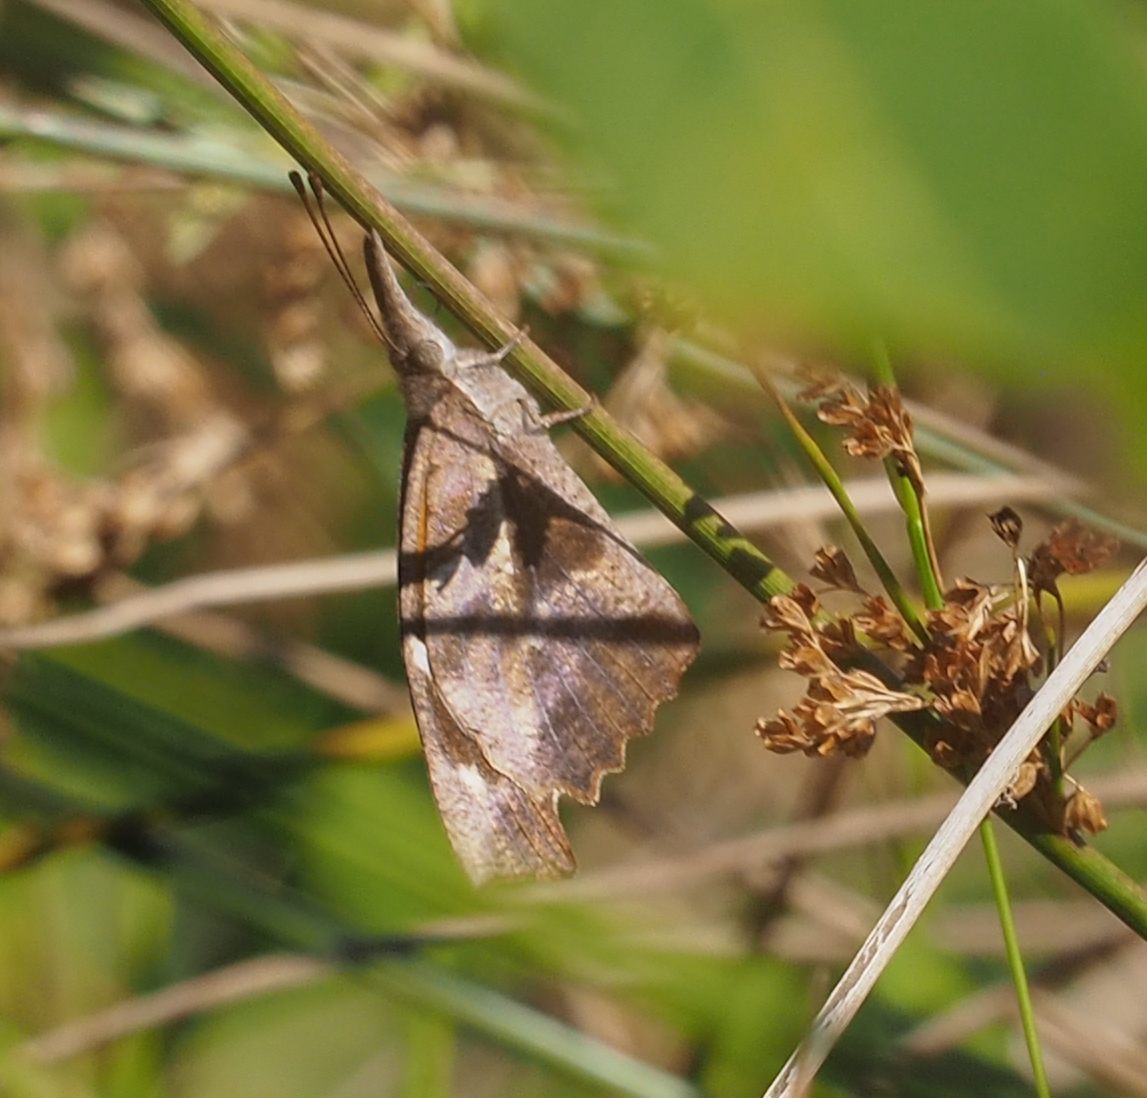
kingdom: Animalia
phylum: Arthropoda
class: Insecta
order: Lepidoptera
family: Nymphalidae
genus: Libytheana
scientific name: Libytheana carinenta
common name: American snout
